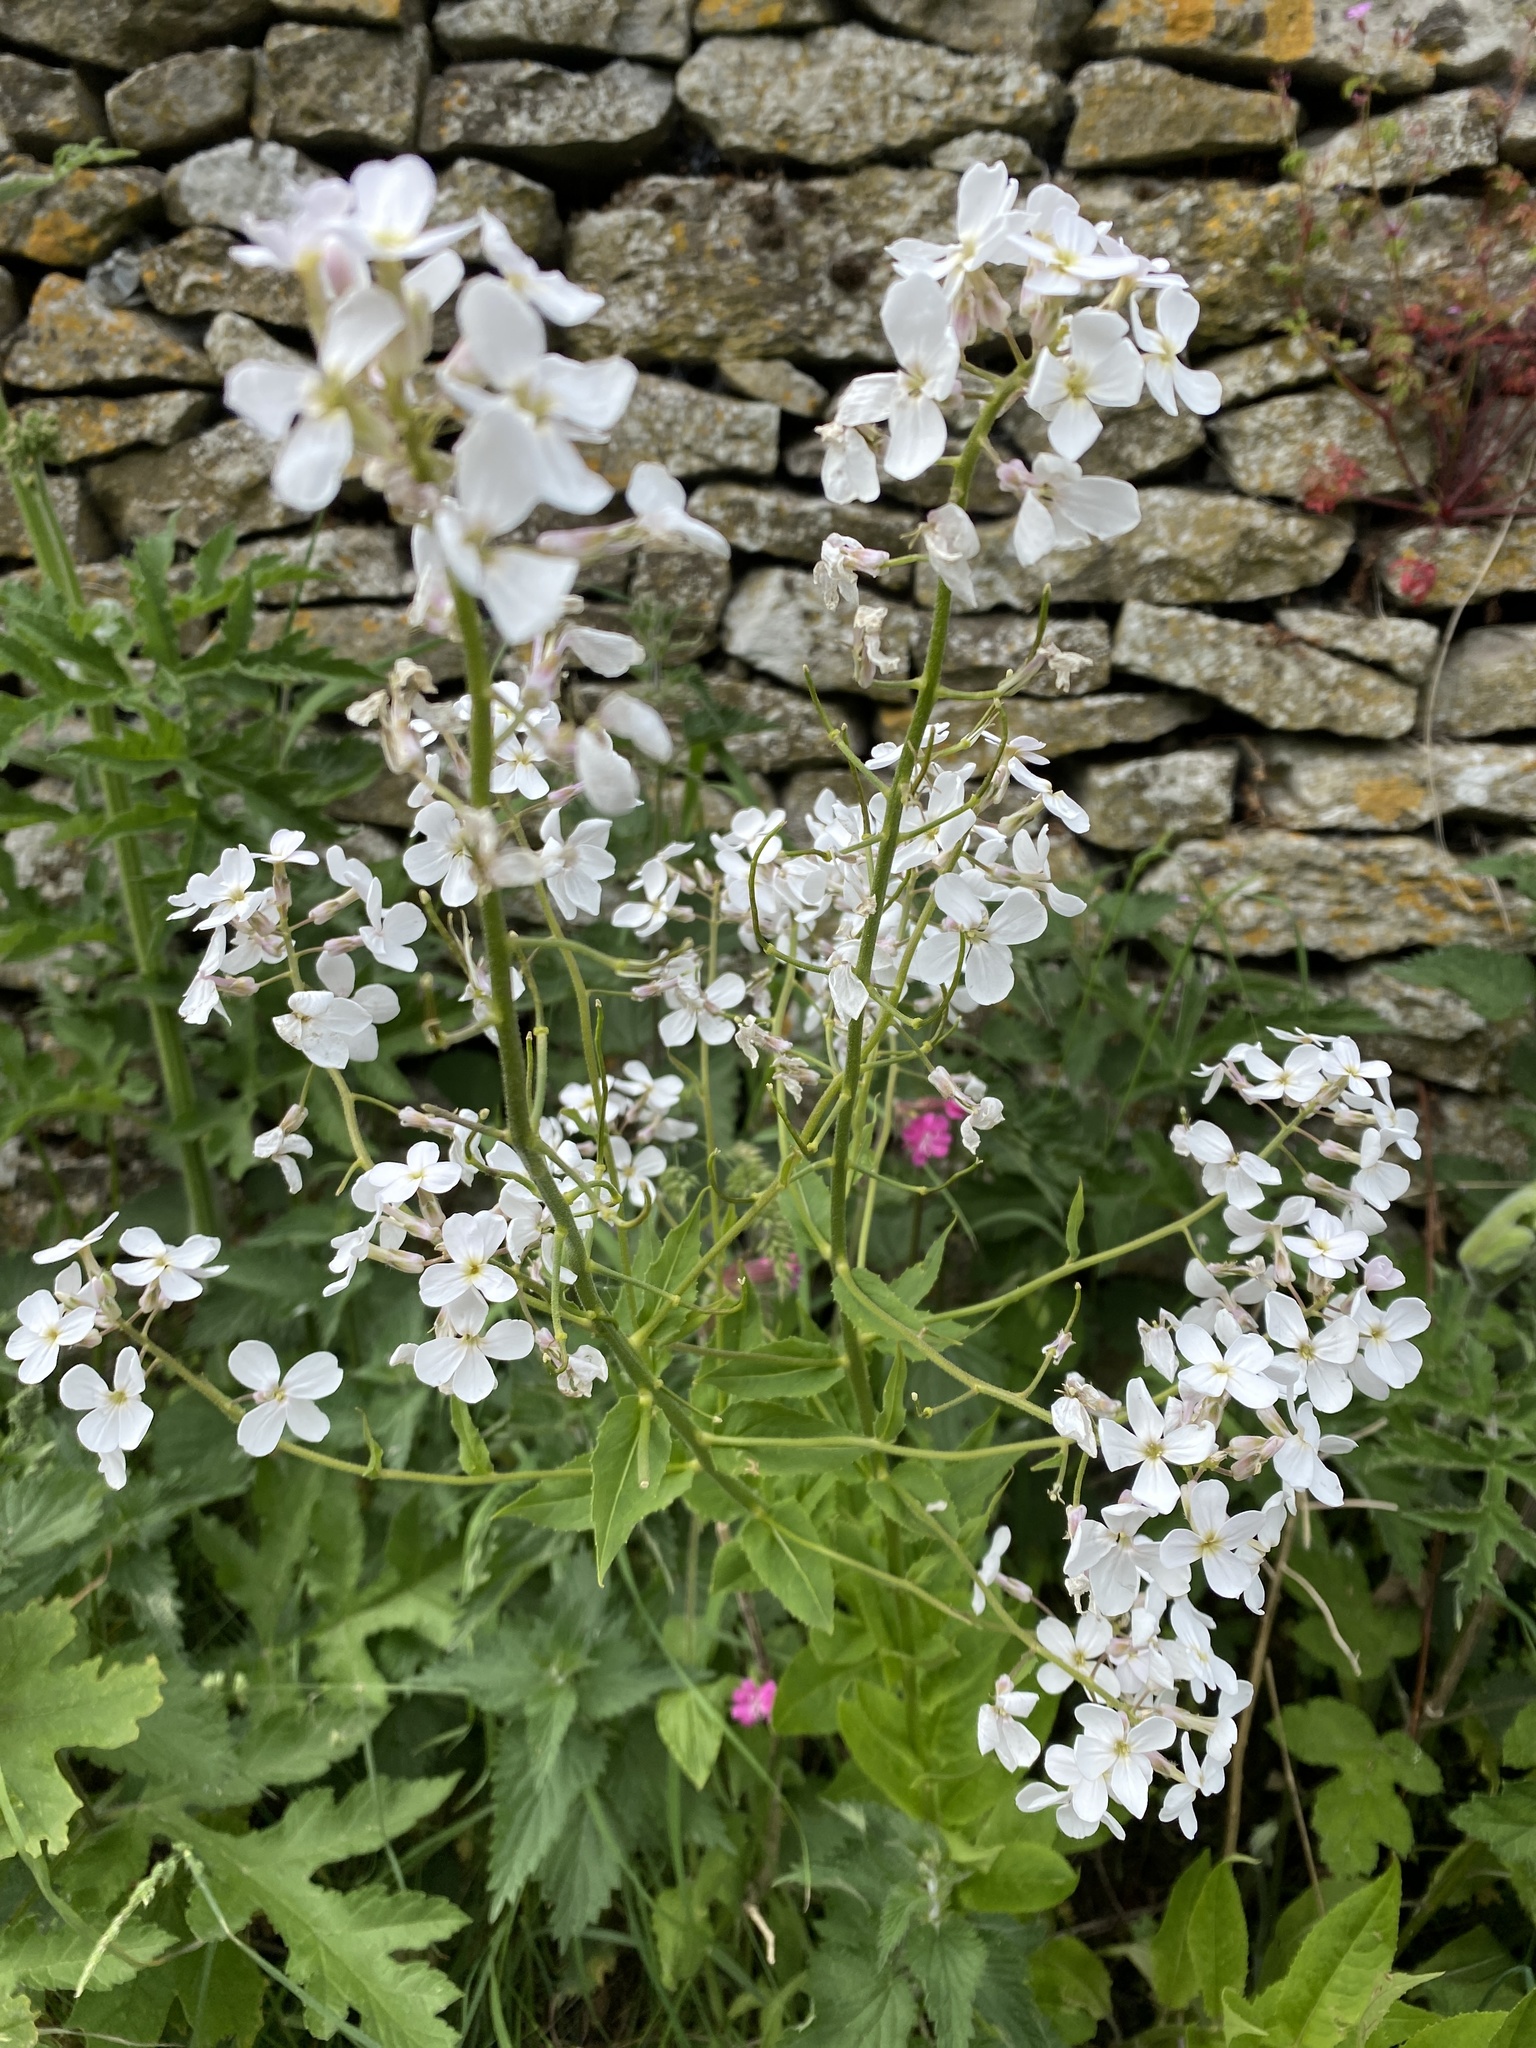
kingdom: Plantae
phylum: Tracheophyta
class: Magnoliopsida
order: Brassicales
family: Brassicaceae
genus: Hesperis
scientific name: Hesperis matronalis
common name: Dame's-violet
